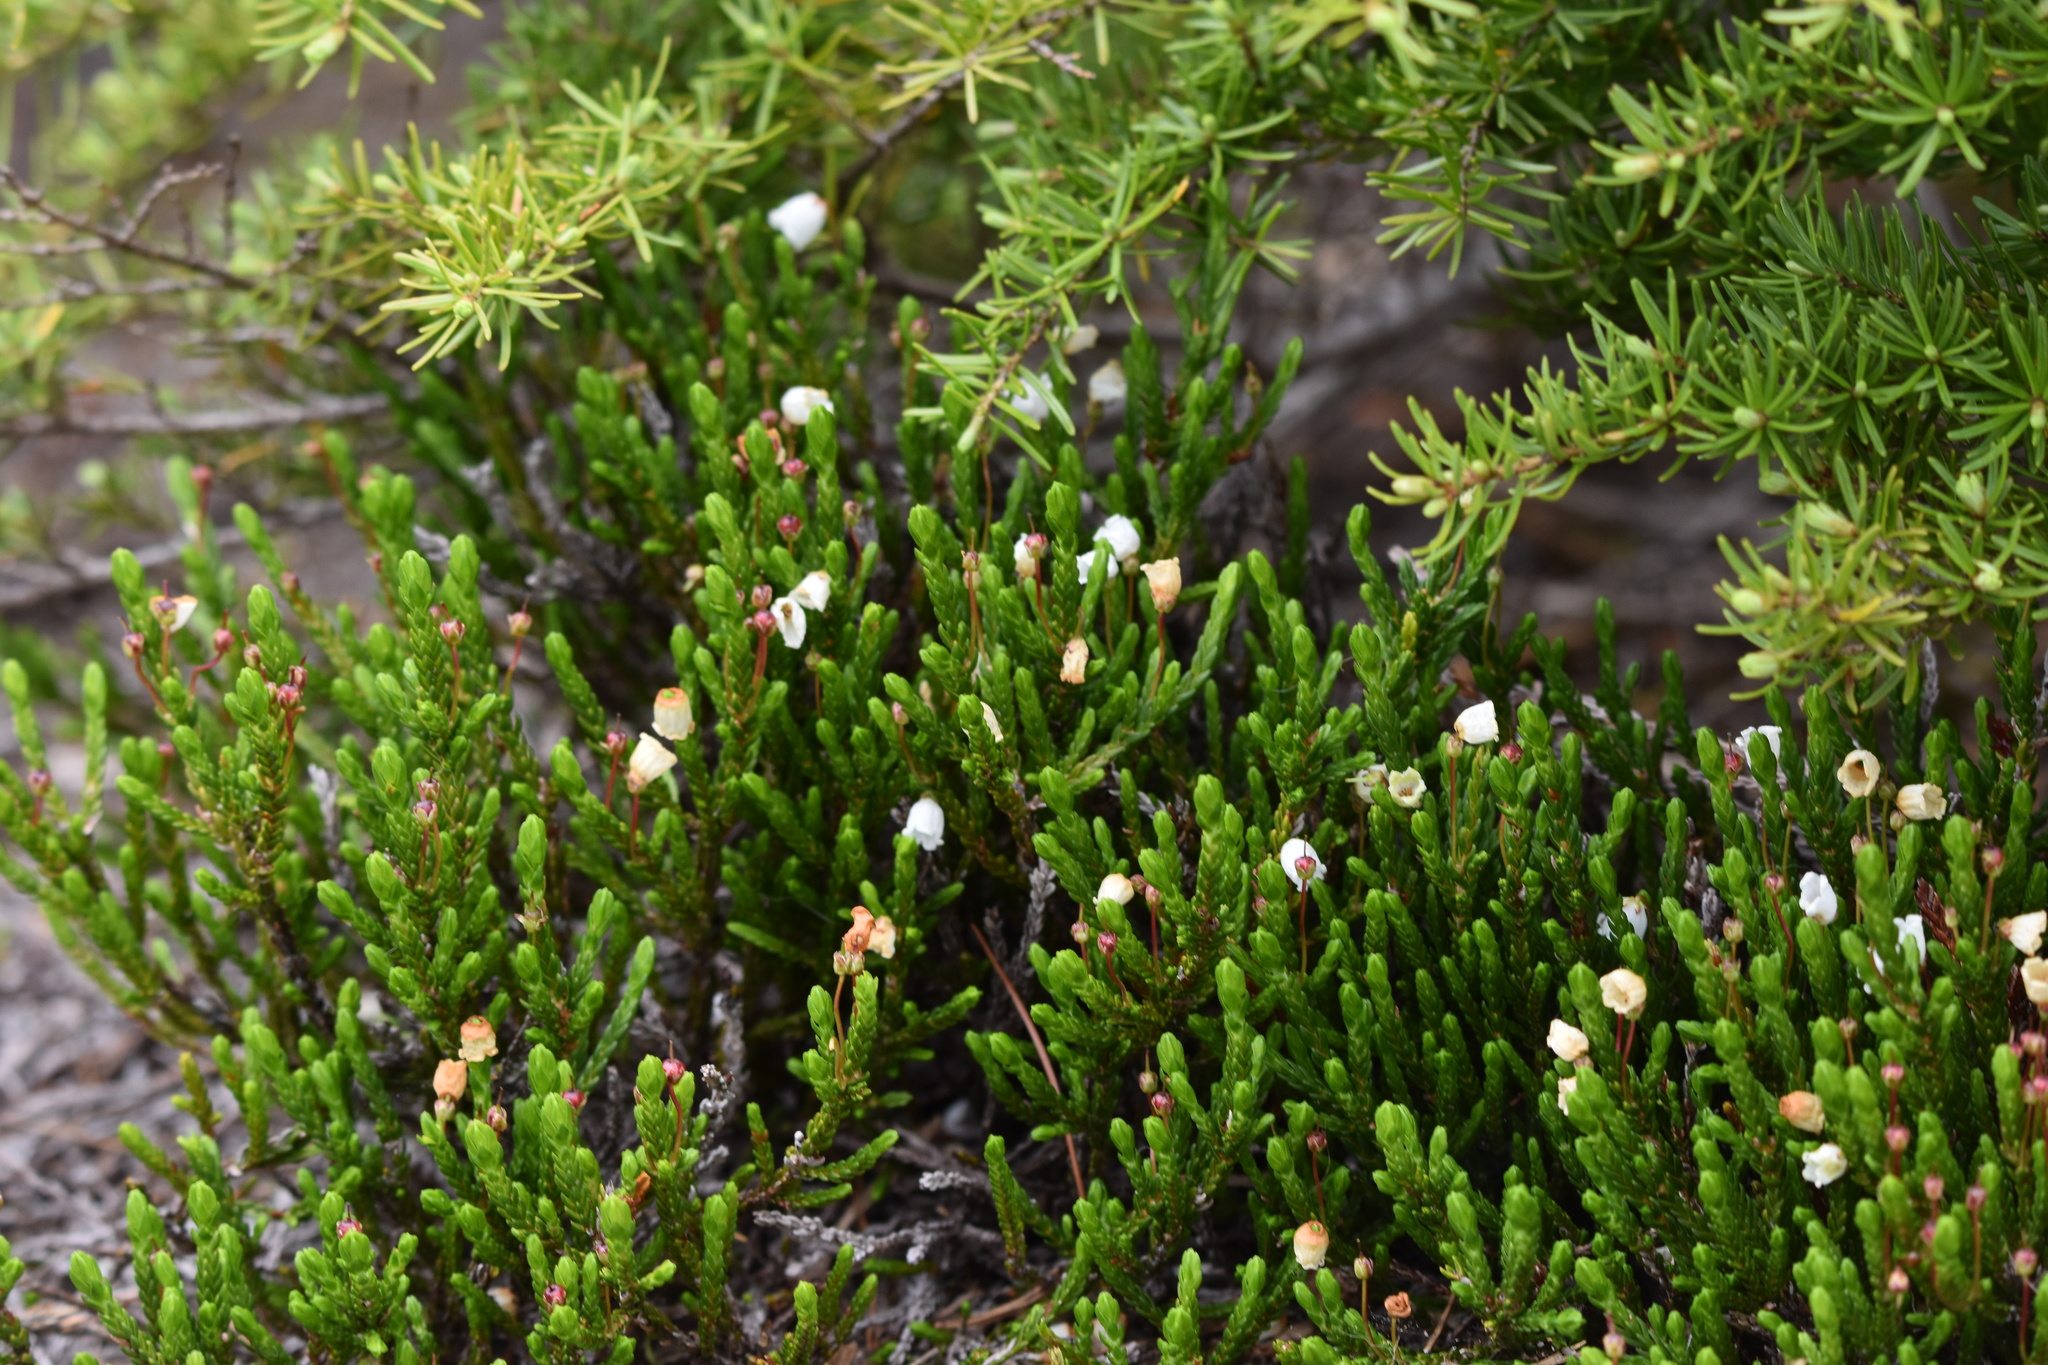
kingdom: Plantae
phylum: Tracheophyta
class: Magnoliopsida
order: Ericales
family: Ericaceae
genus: Cassiope
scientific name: Cassiope mertensiana
